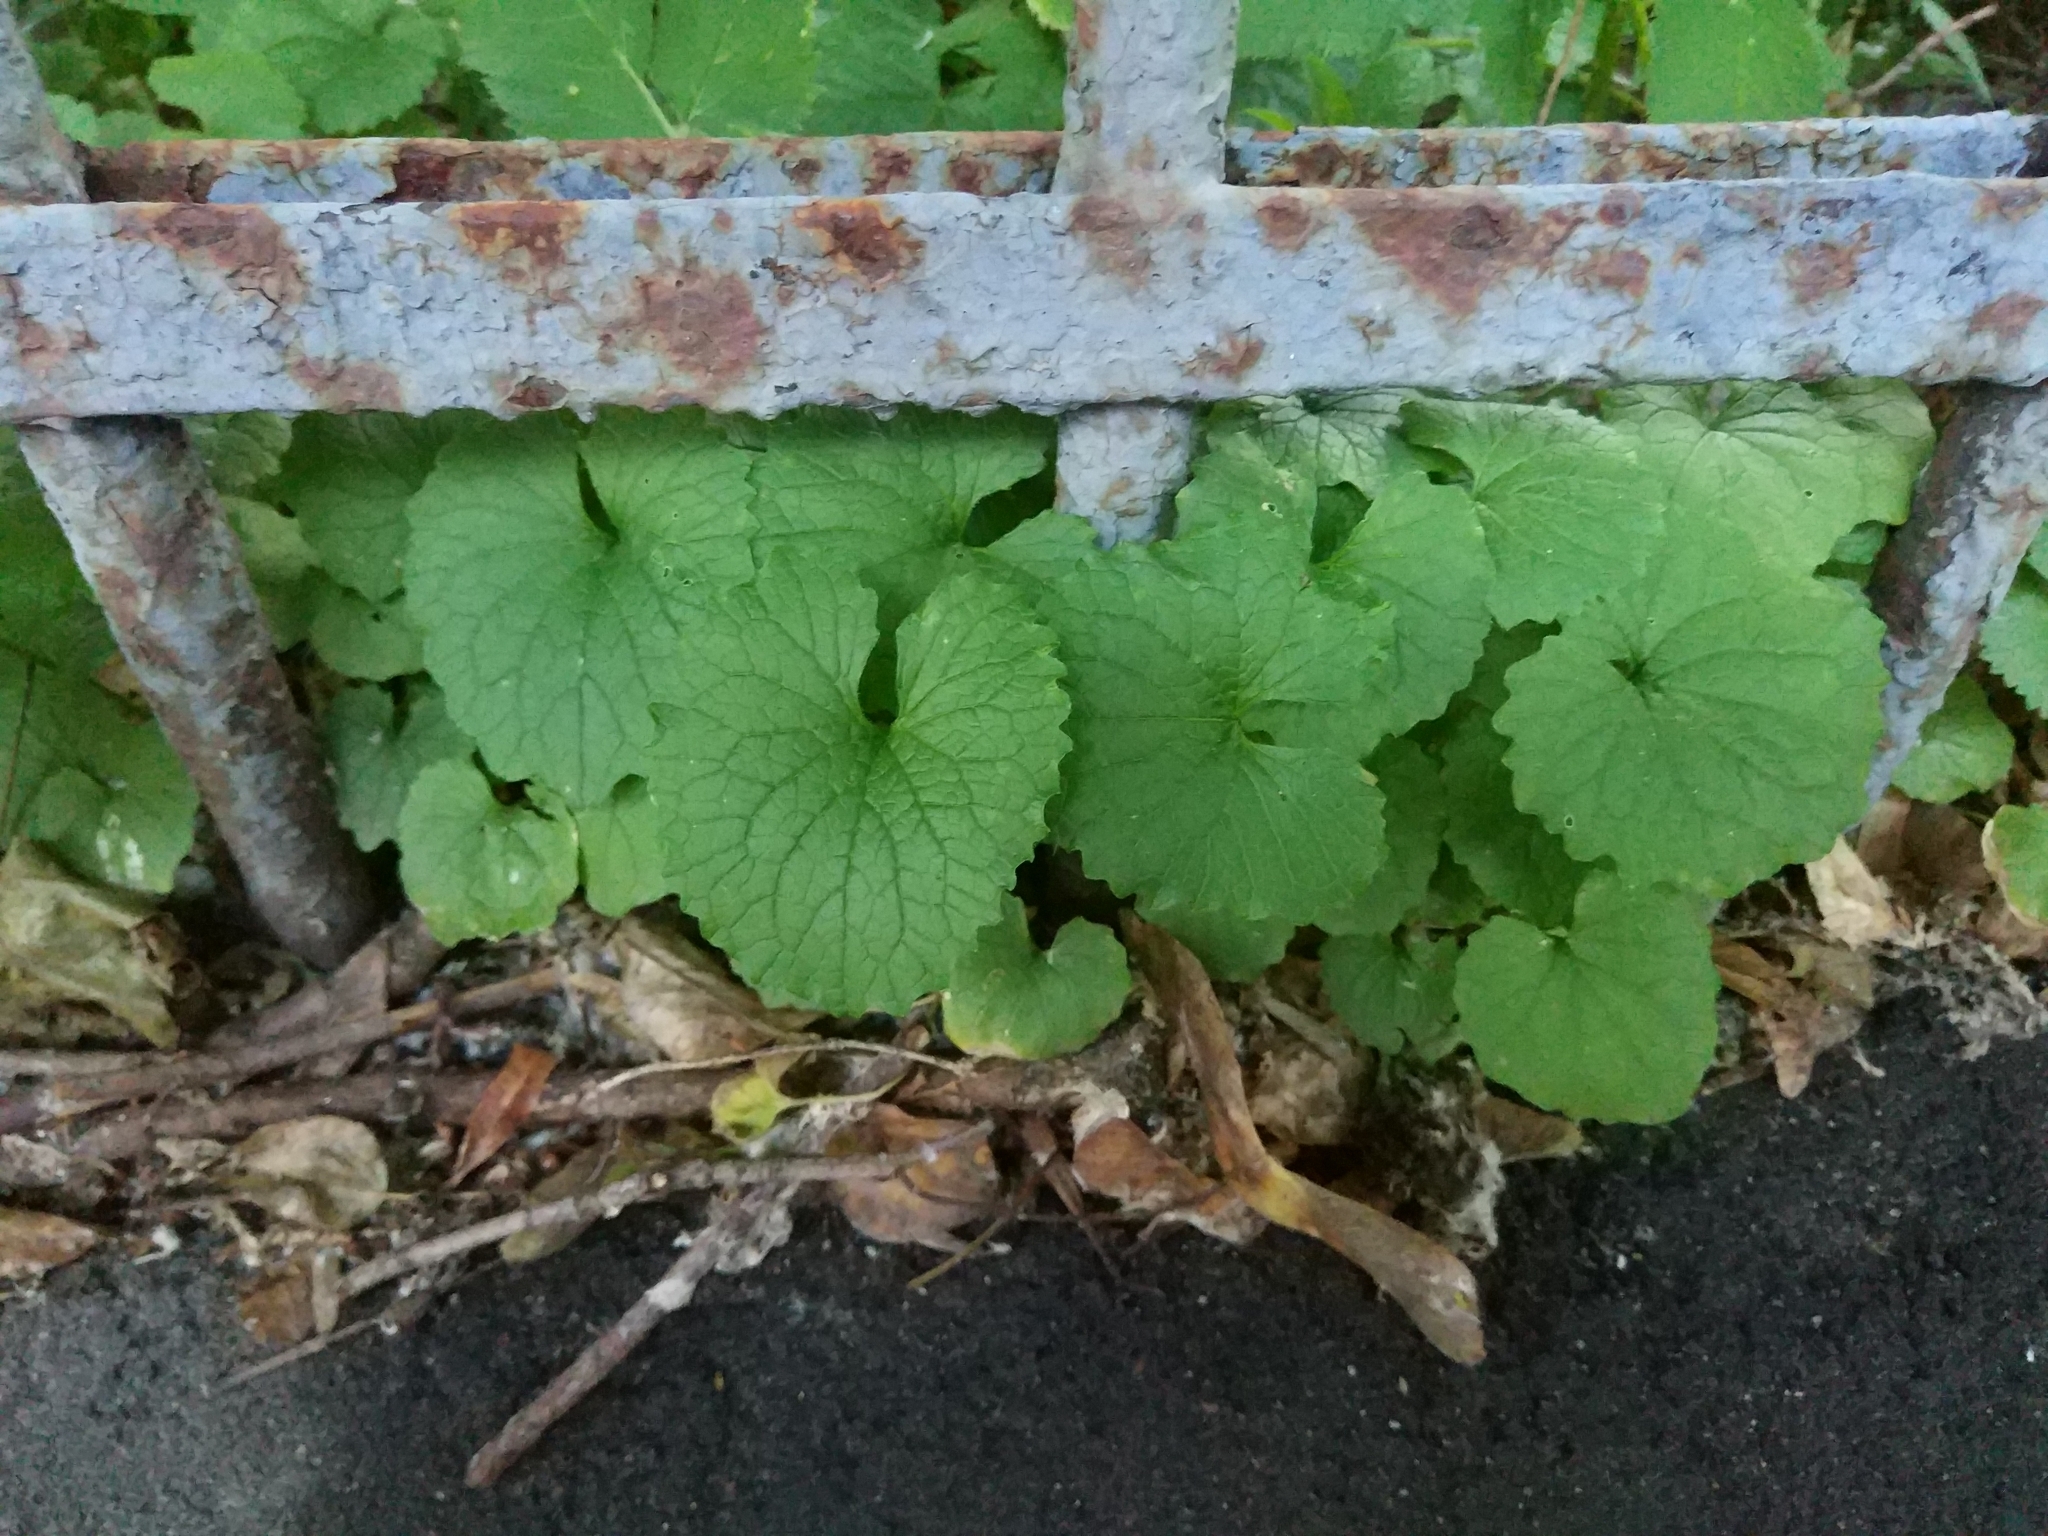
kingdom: Plantae
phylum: Tracheophyta
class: Magnoliopsida
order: Brassicales
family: Brassicaceae
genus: Alliaria
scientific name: Alliaria petiolata
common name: Garlic mustard
